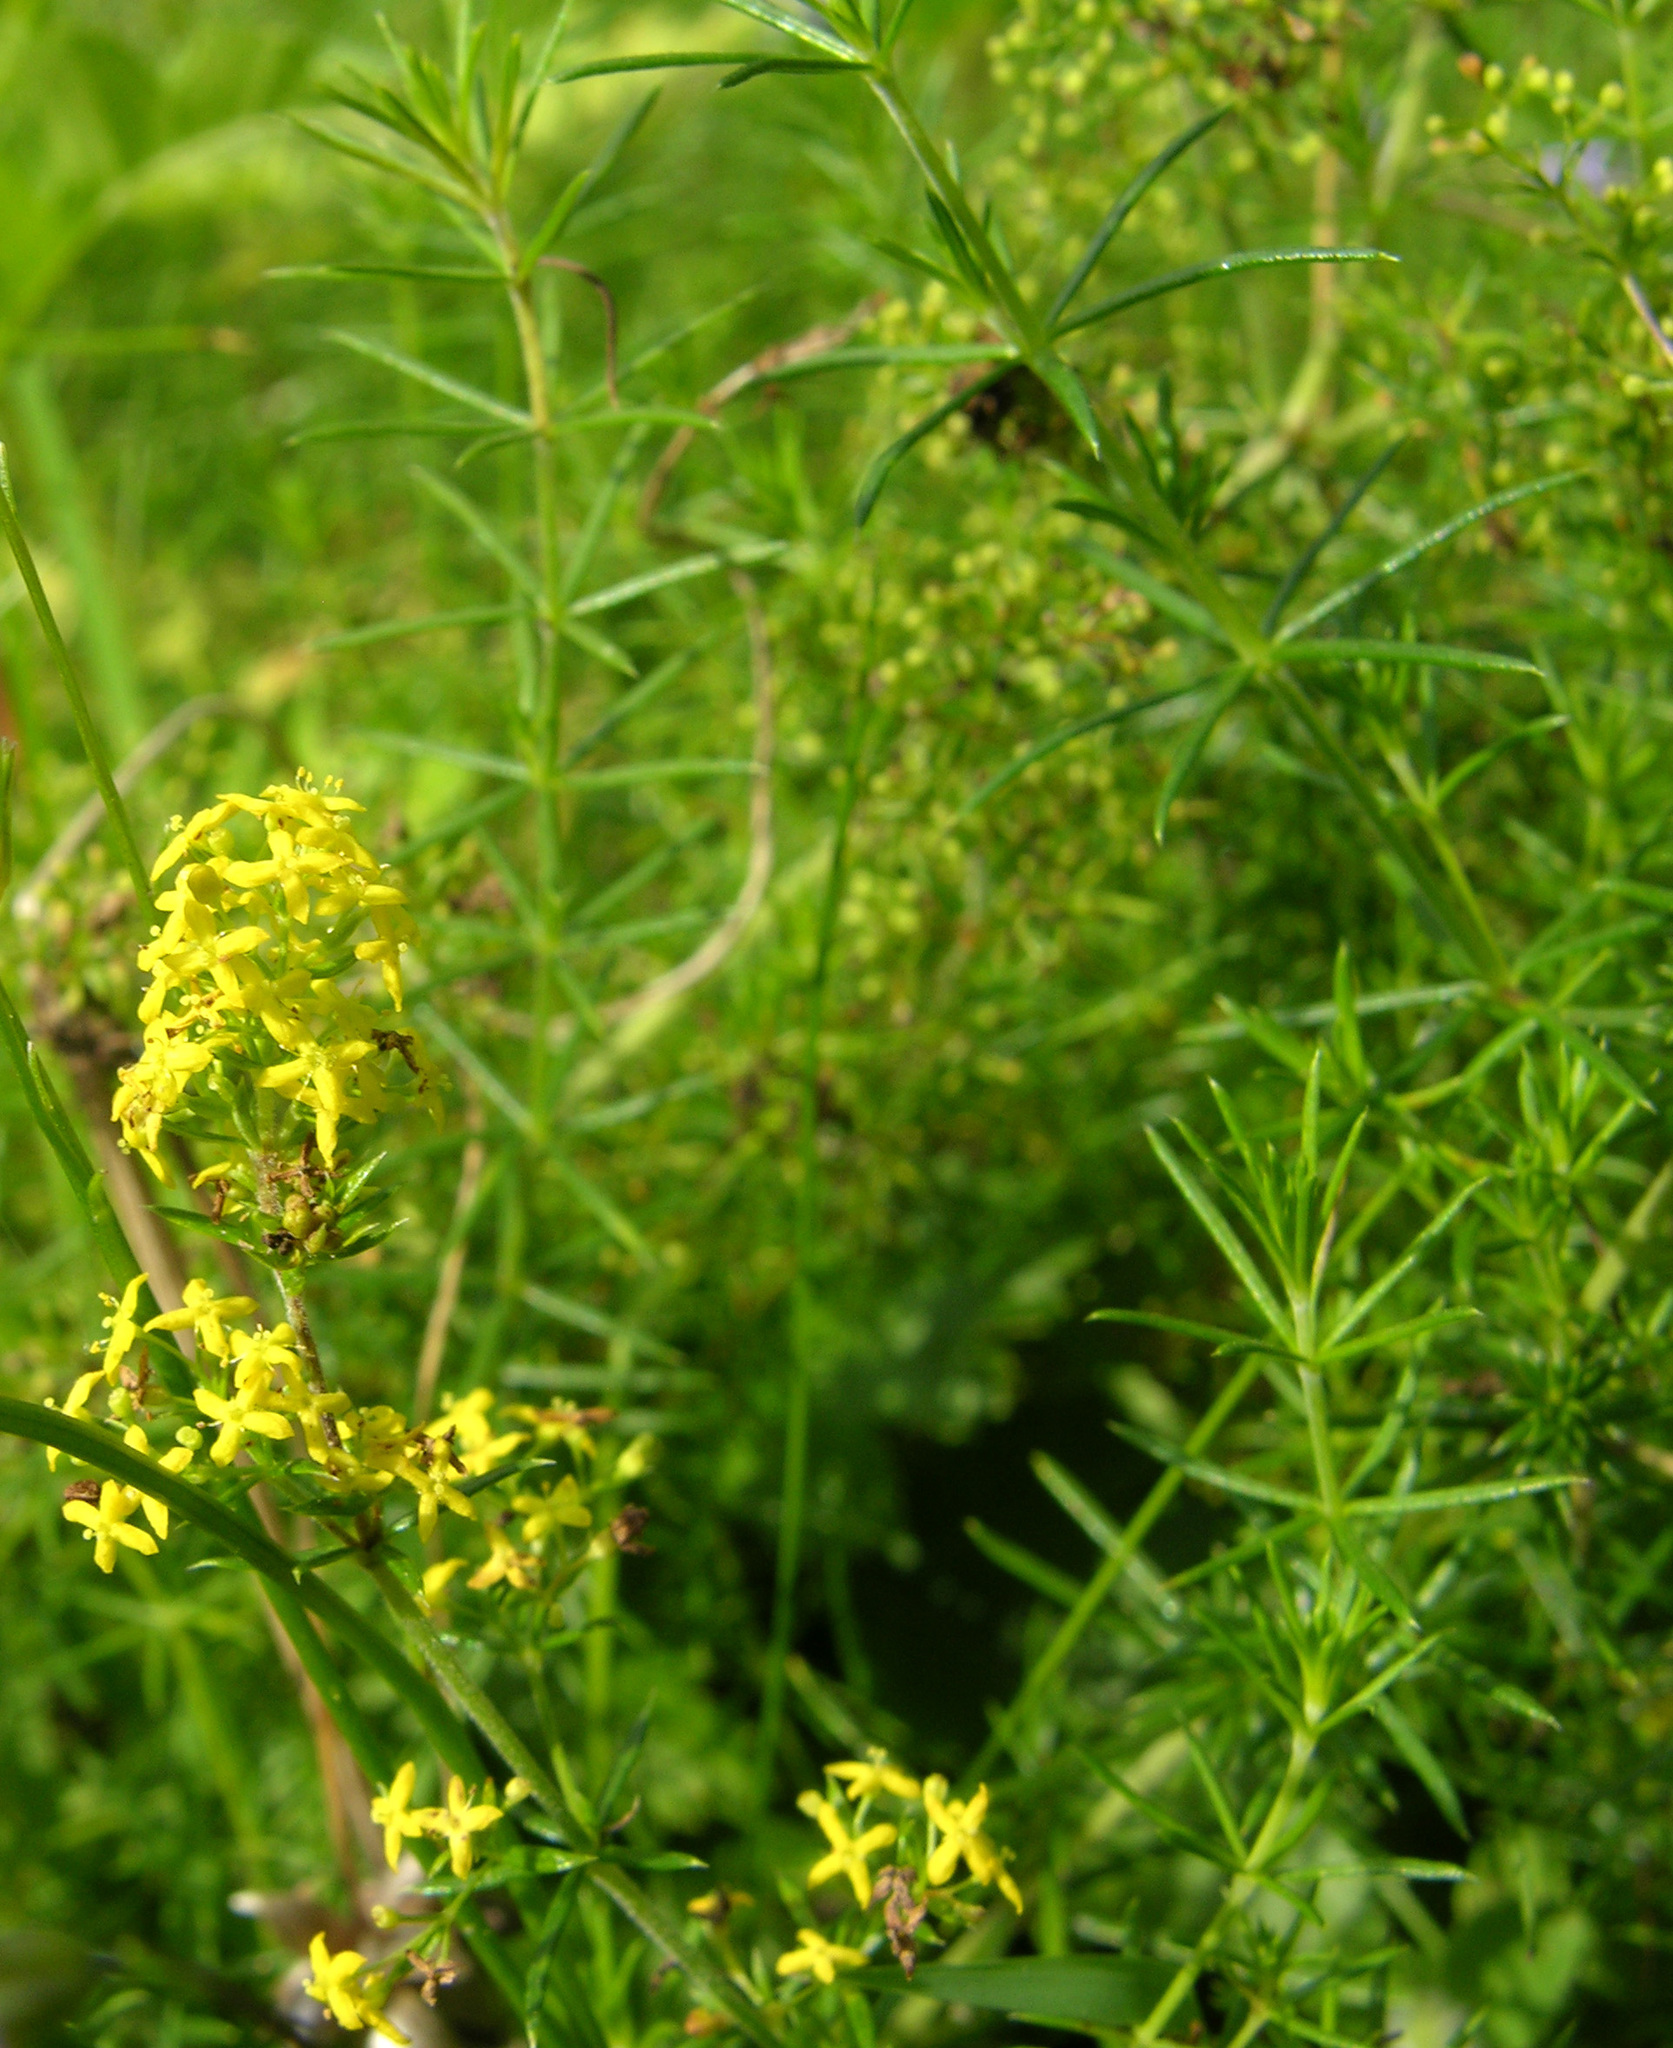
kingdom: Plantae
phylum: Tracheophyta
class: Magnoliopsida
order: Gentianales
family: Rubiaceae
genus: Galium
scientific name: Galium verum
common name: Lady's bedstraw
